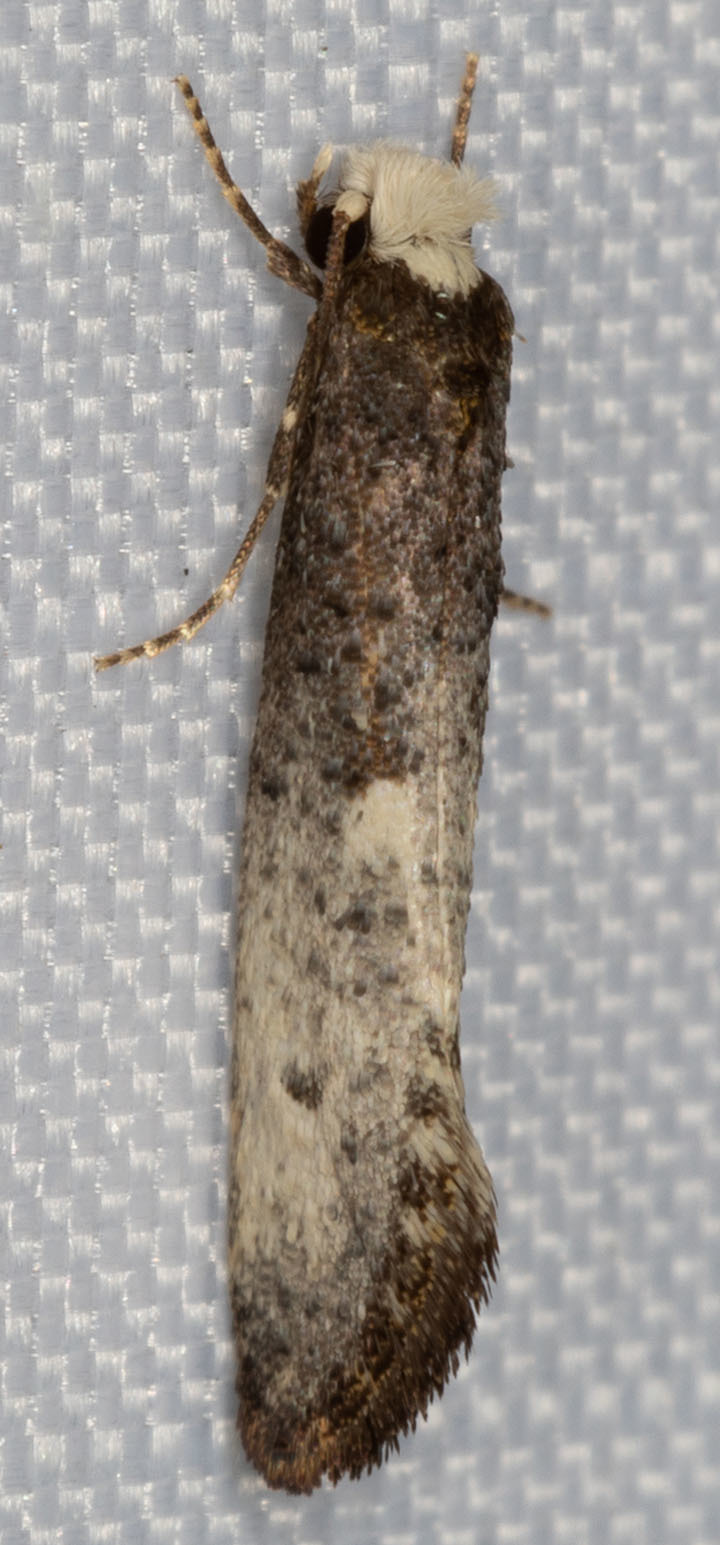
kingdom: Animalia
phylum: Arthropoda
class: Insecta
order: Lepidoptera
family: Tineidae
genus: Tinea
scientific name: Tinea occidentella
